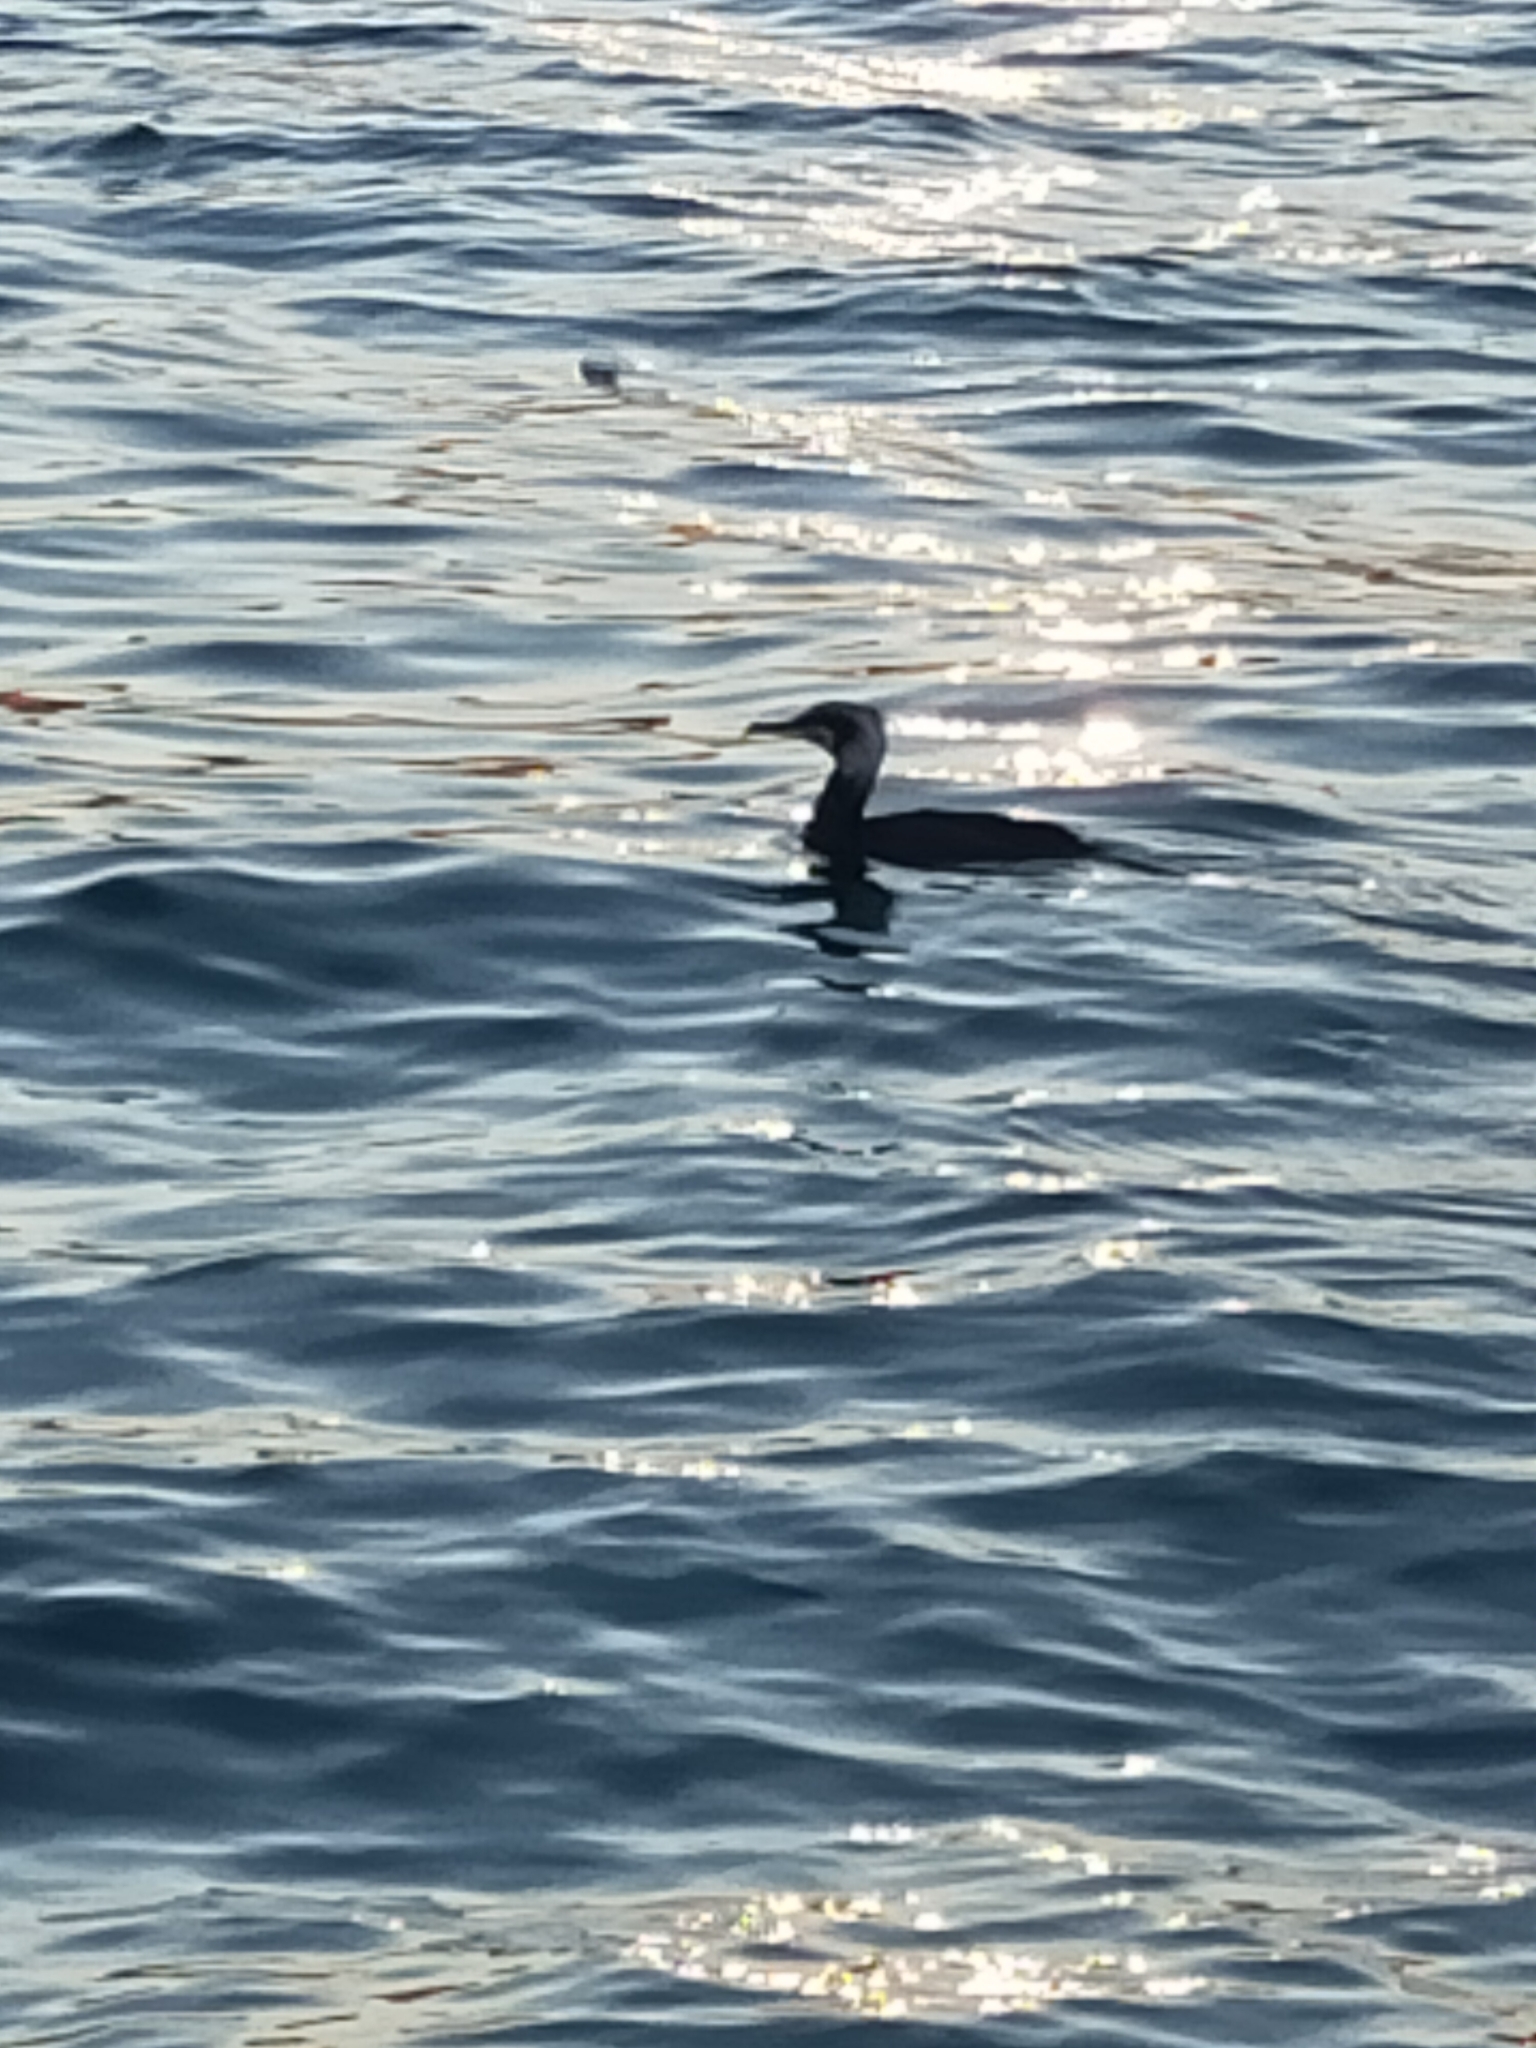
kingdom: Animalia
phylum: Chordata
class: Aves
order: Suliformes
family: Phalacrocoracidae
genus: Phalacrocorax
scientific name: Phalacrocorax carbo
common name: Great cormorant
